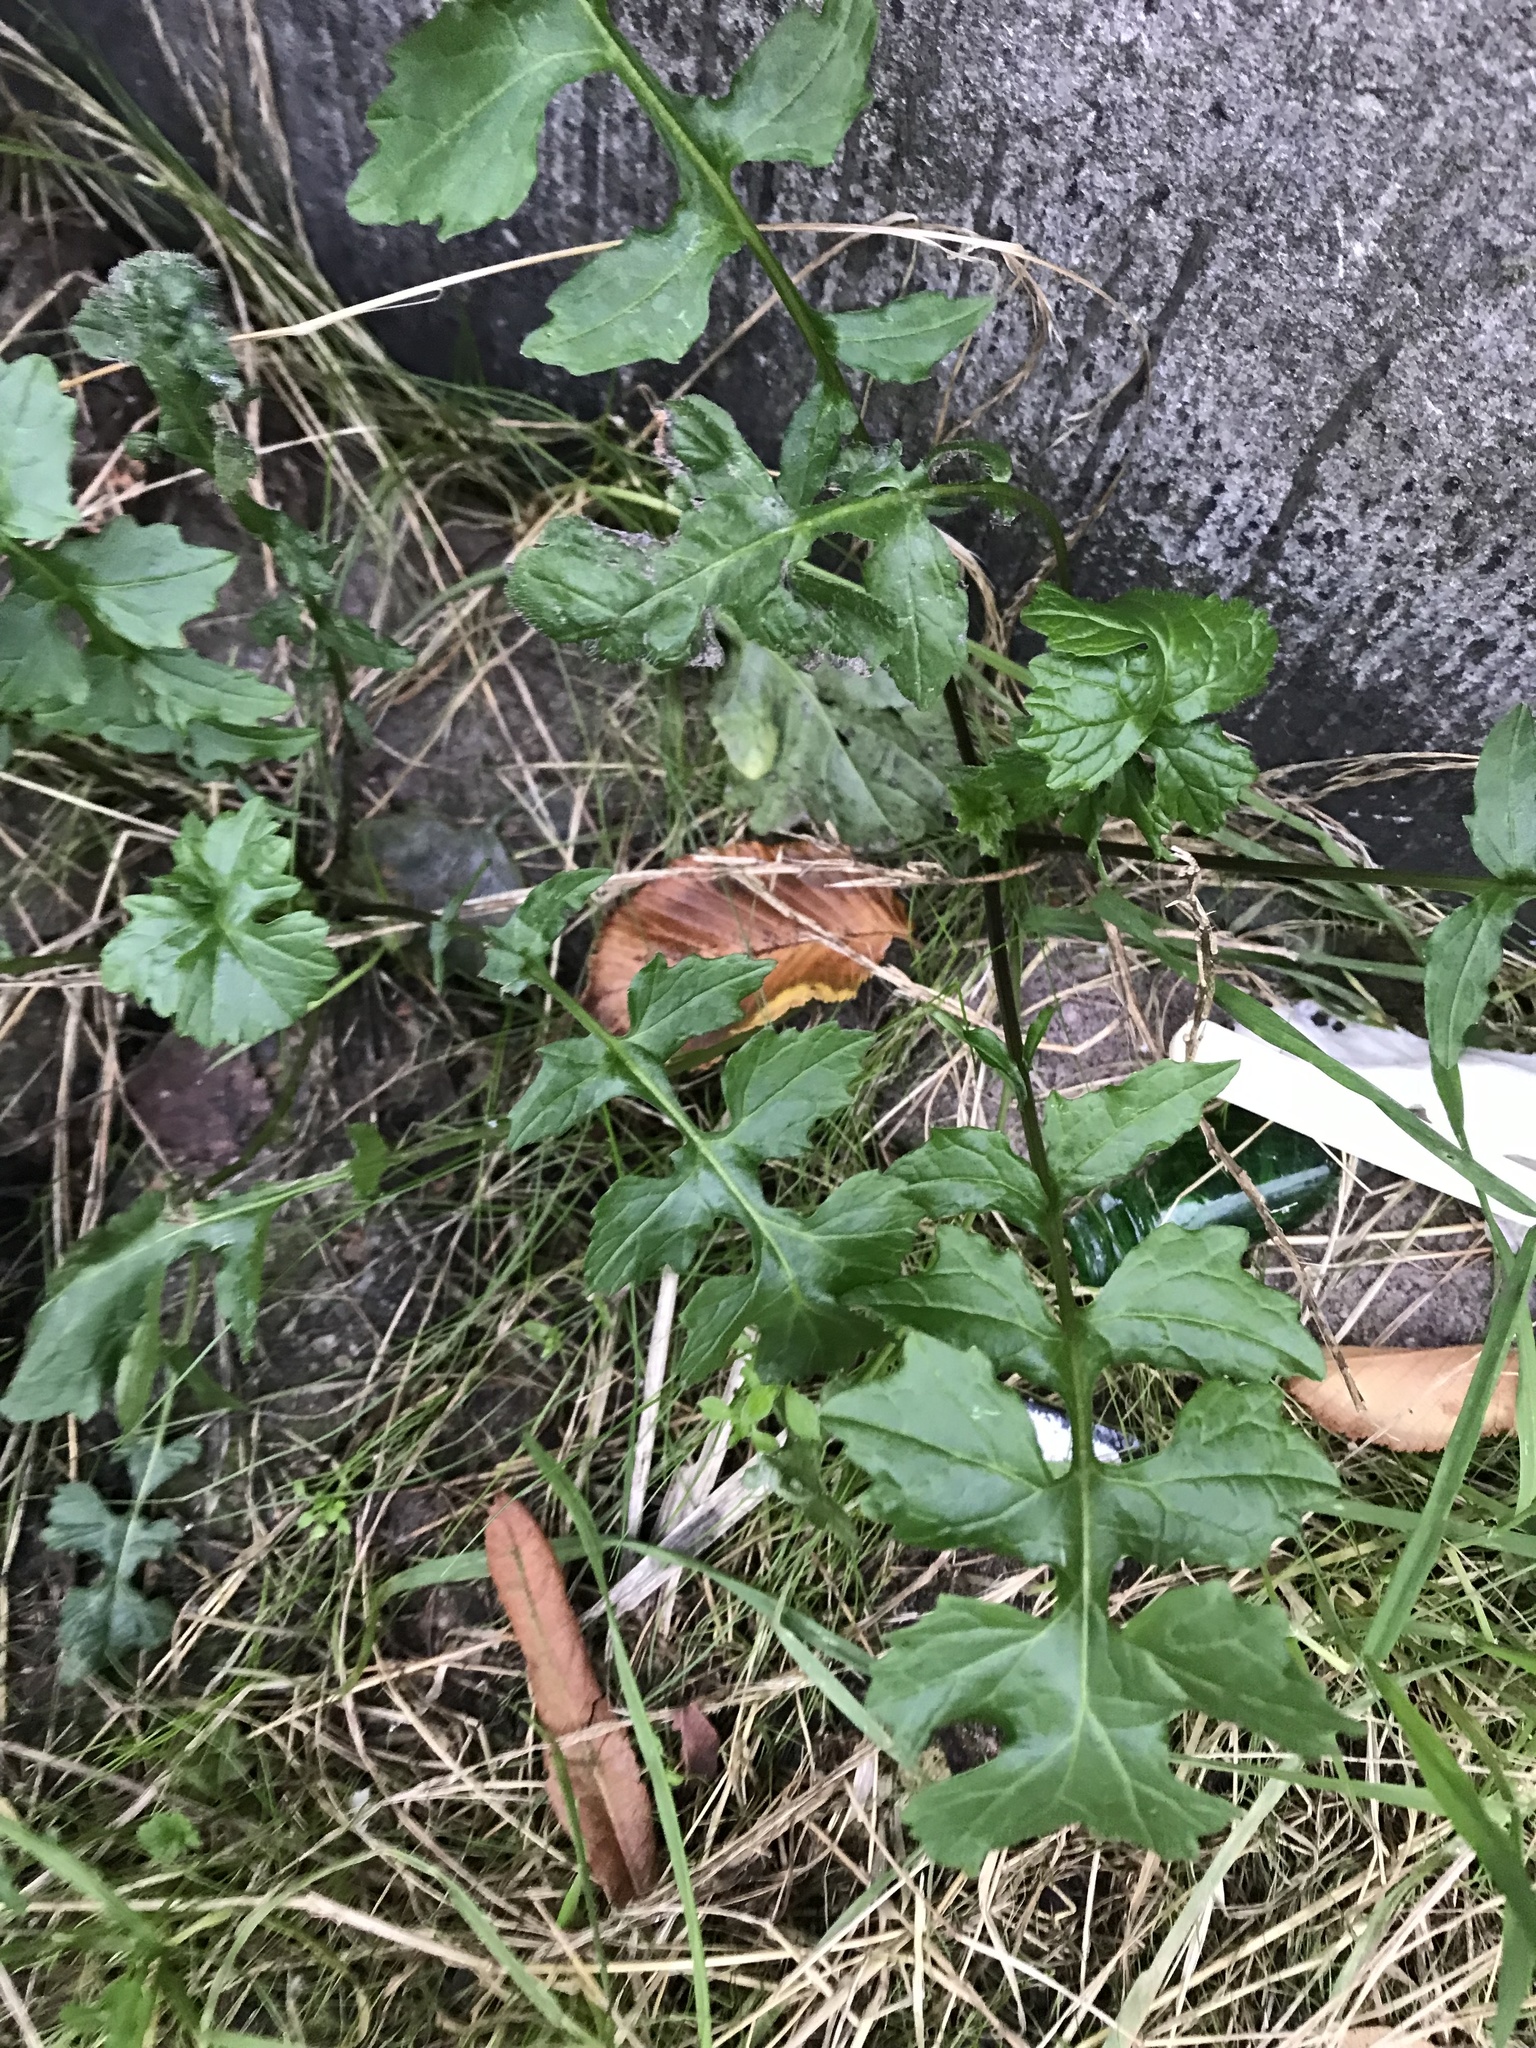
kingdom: Plantae
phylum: Tracheophyta
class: Magnoliopsida
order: Brassicales
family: Brassicaceae
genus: Sisymbrium
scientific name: Sisymbrium officinale
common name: Hedge mustard
